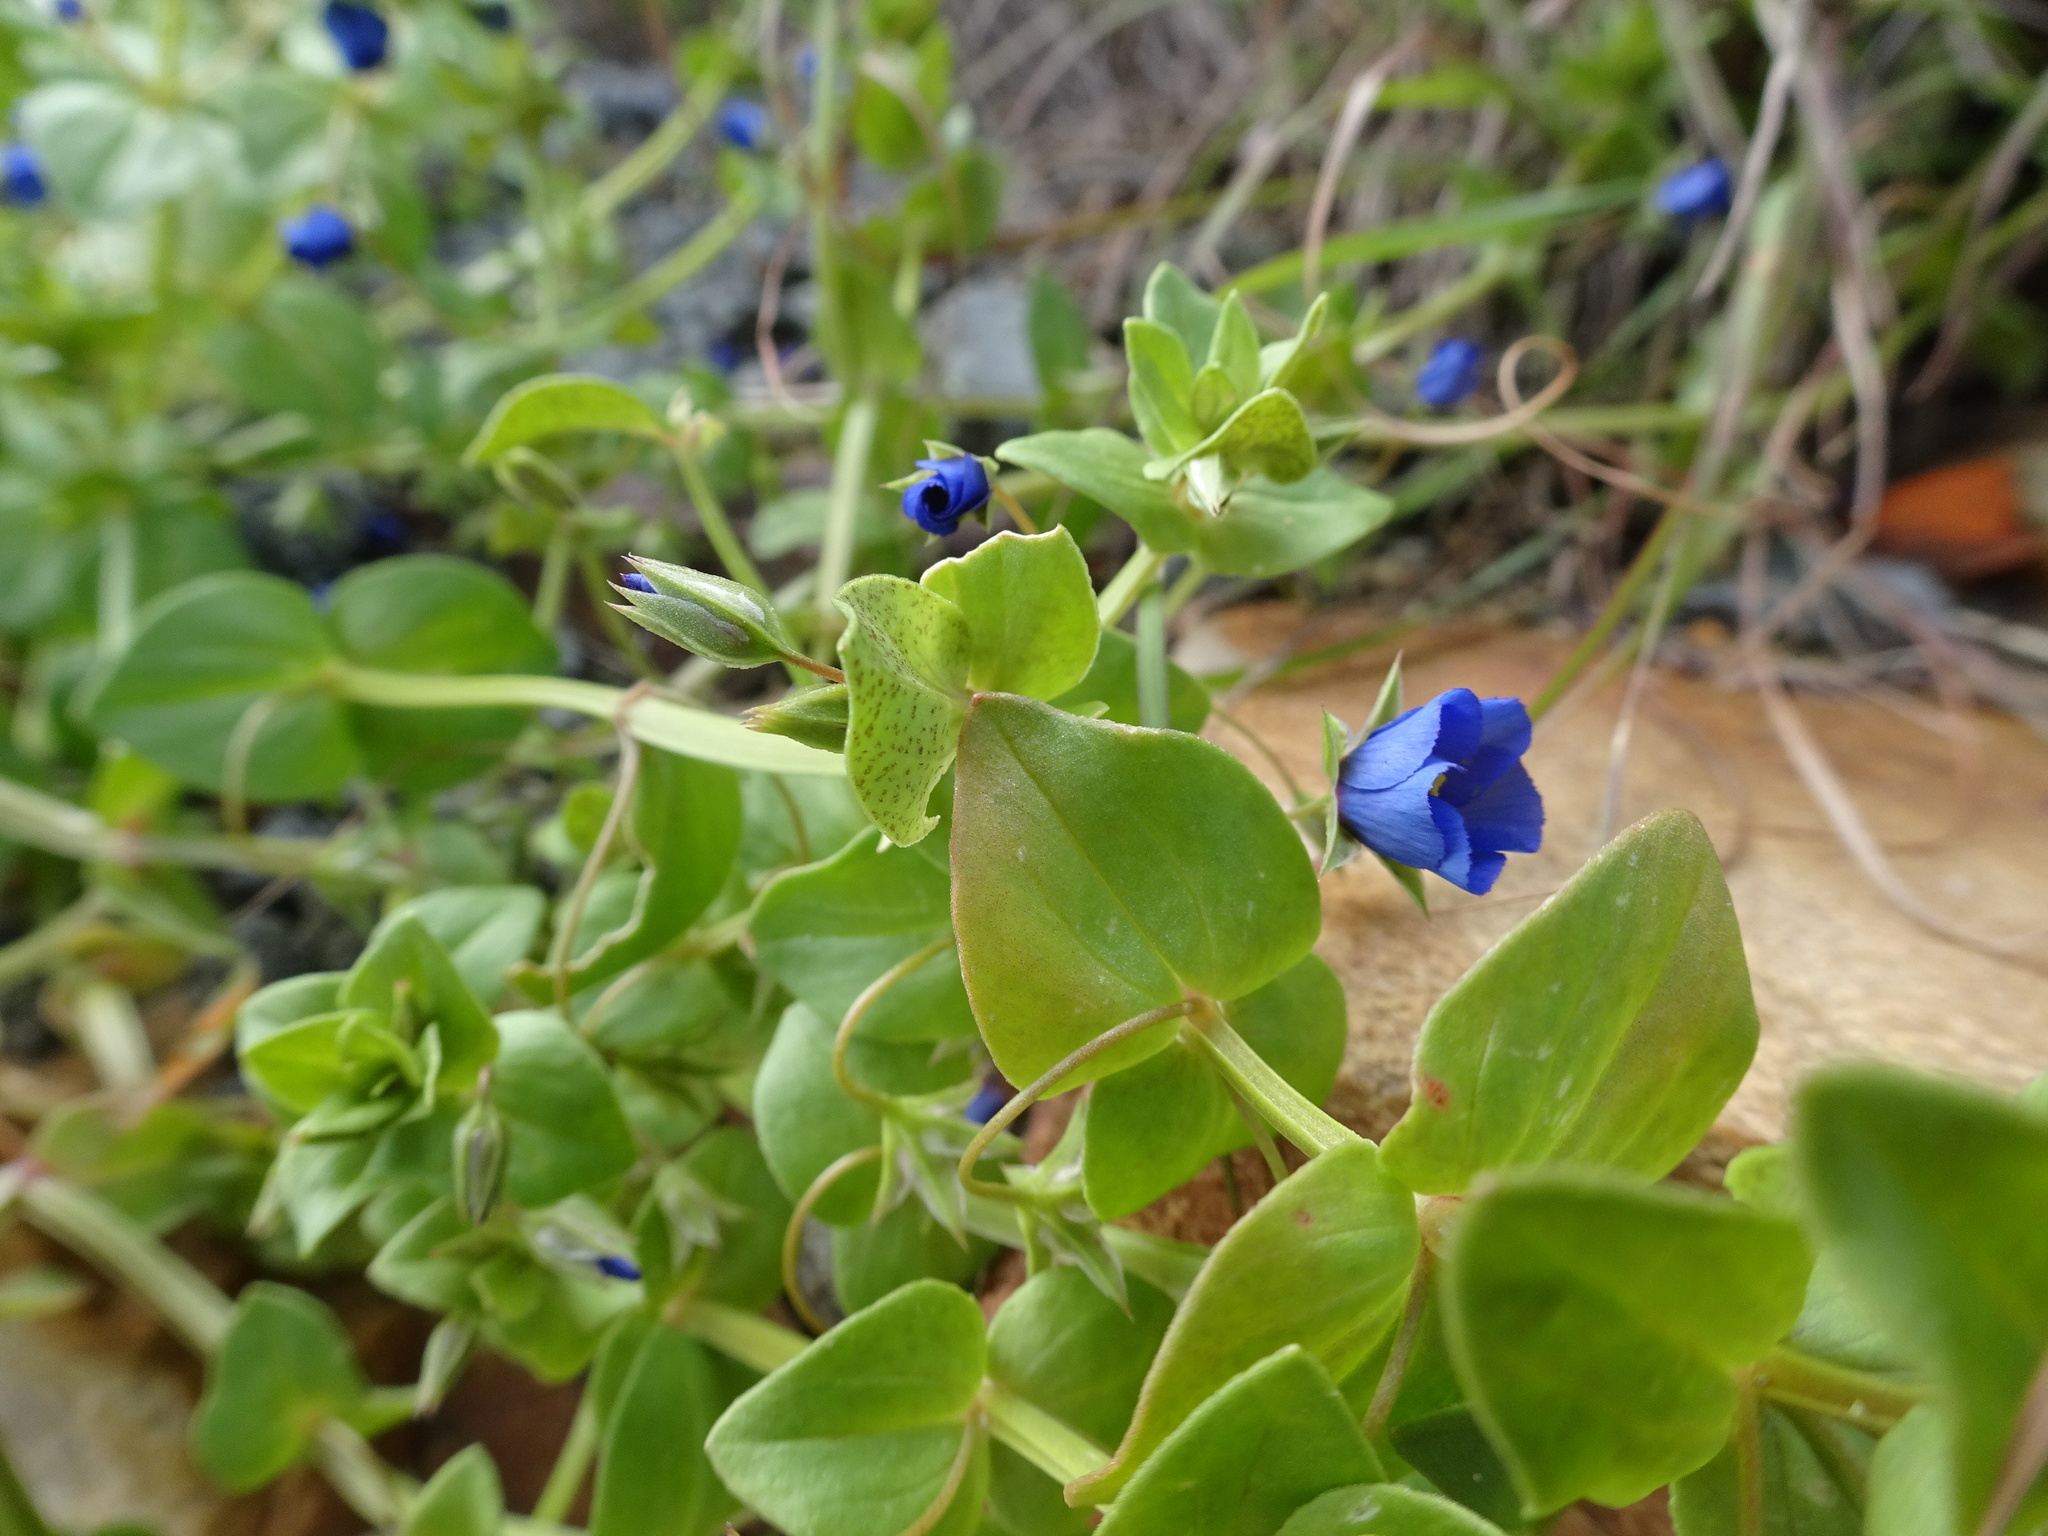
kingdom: Plantae
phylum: Tracheophyta
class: Magnoliopsida
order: Ericales
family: Primulaceae
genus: Lysimachia
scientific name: Lysimachia loeflingii
